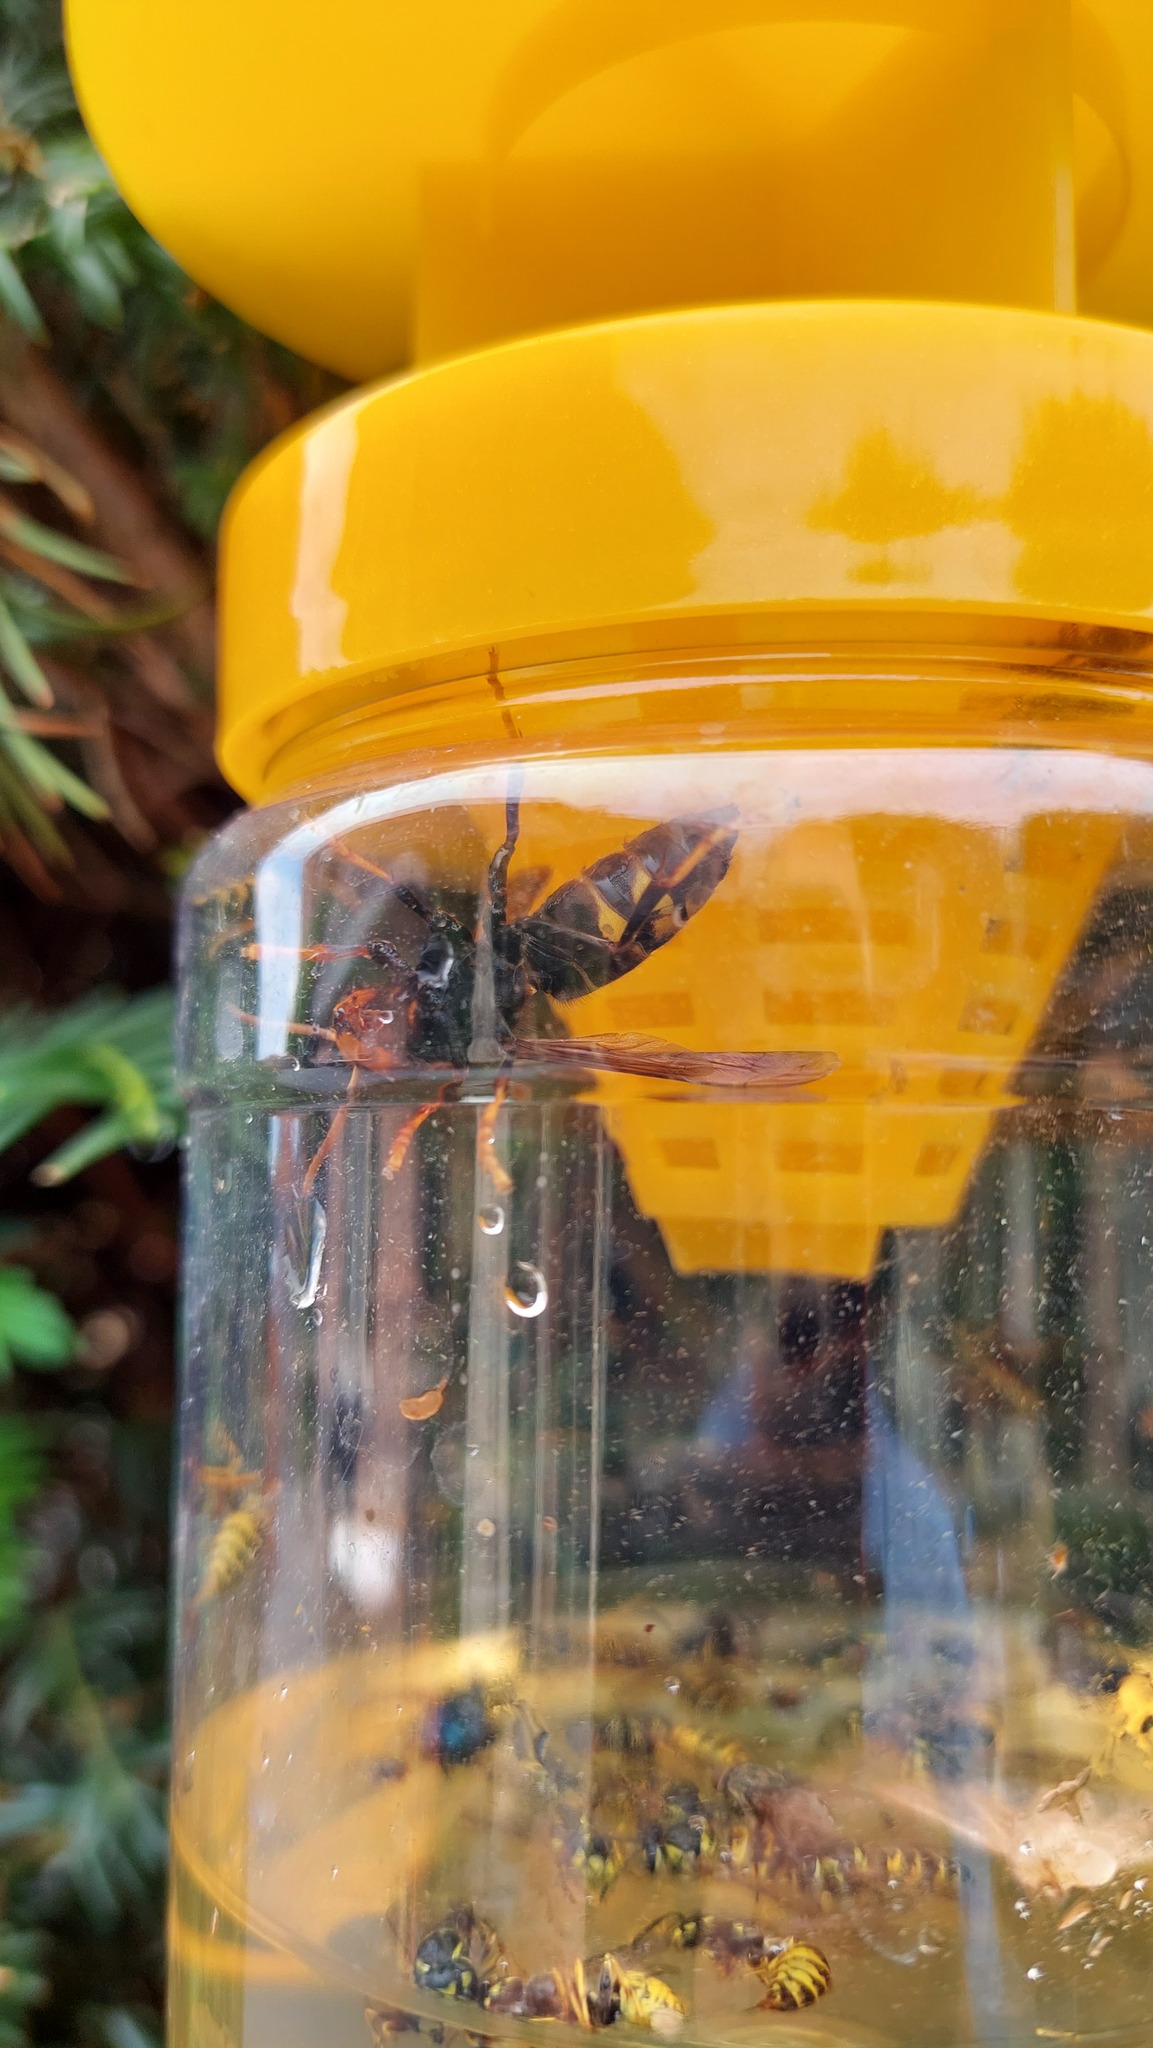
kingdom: Animalia
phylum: Arthropoda
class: Insecta
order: Hymenoptera
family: Vespidae
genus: Vespa
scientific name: Vespa velutina
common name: Asian hornet
